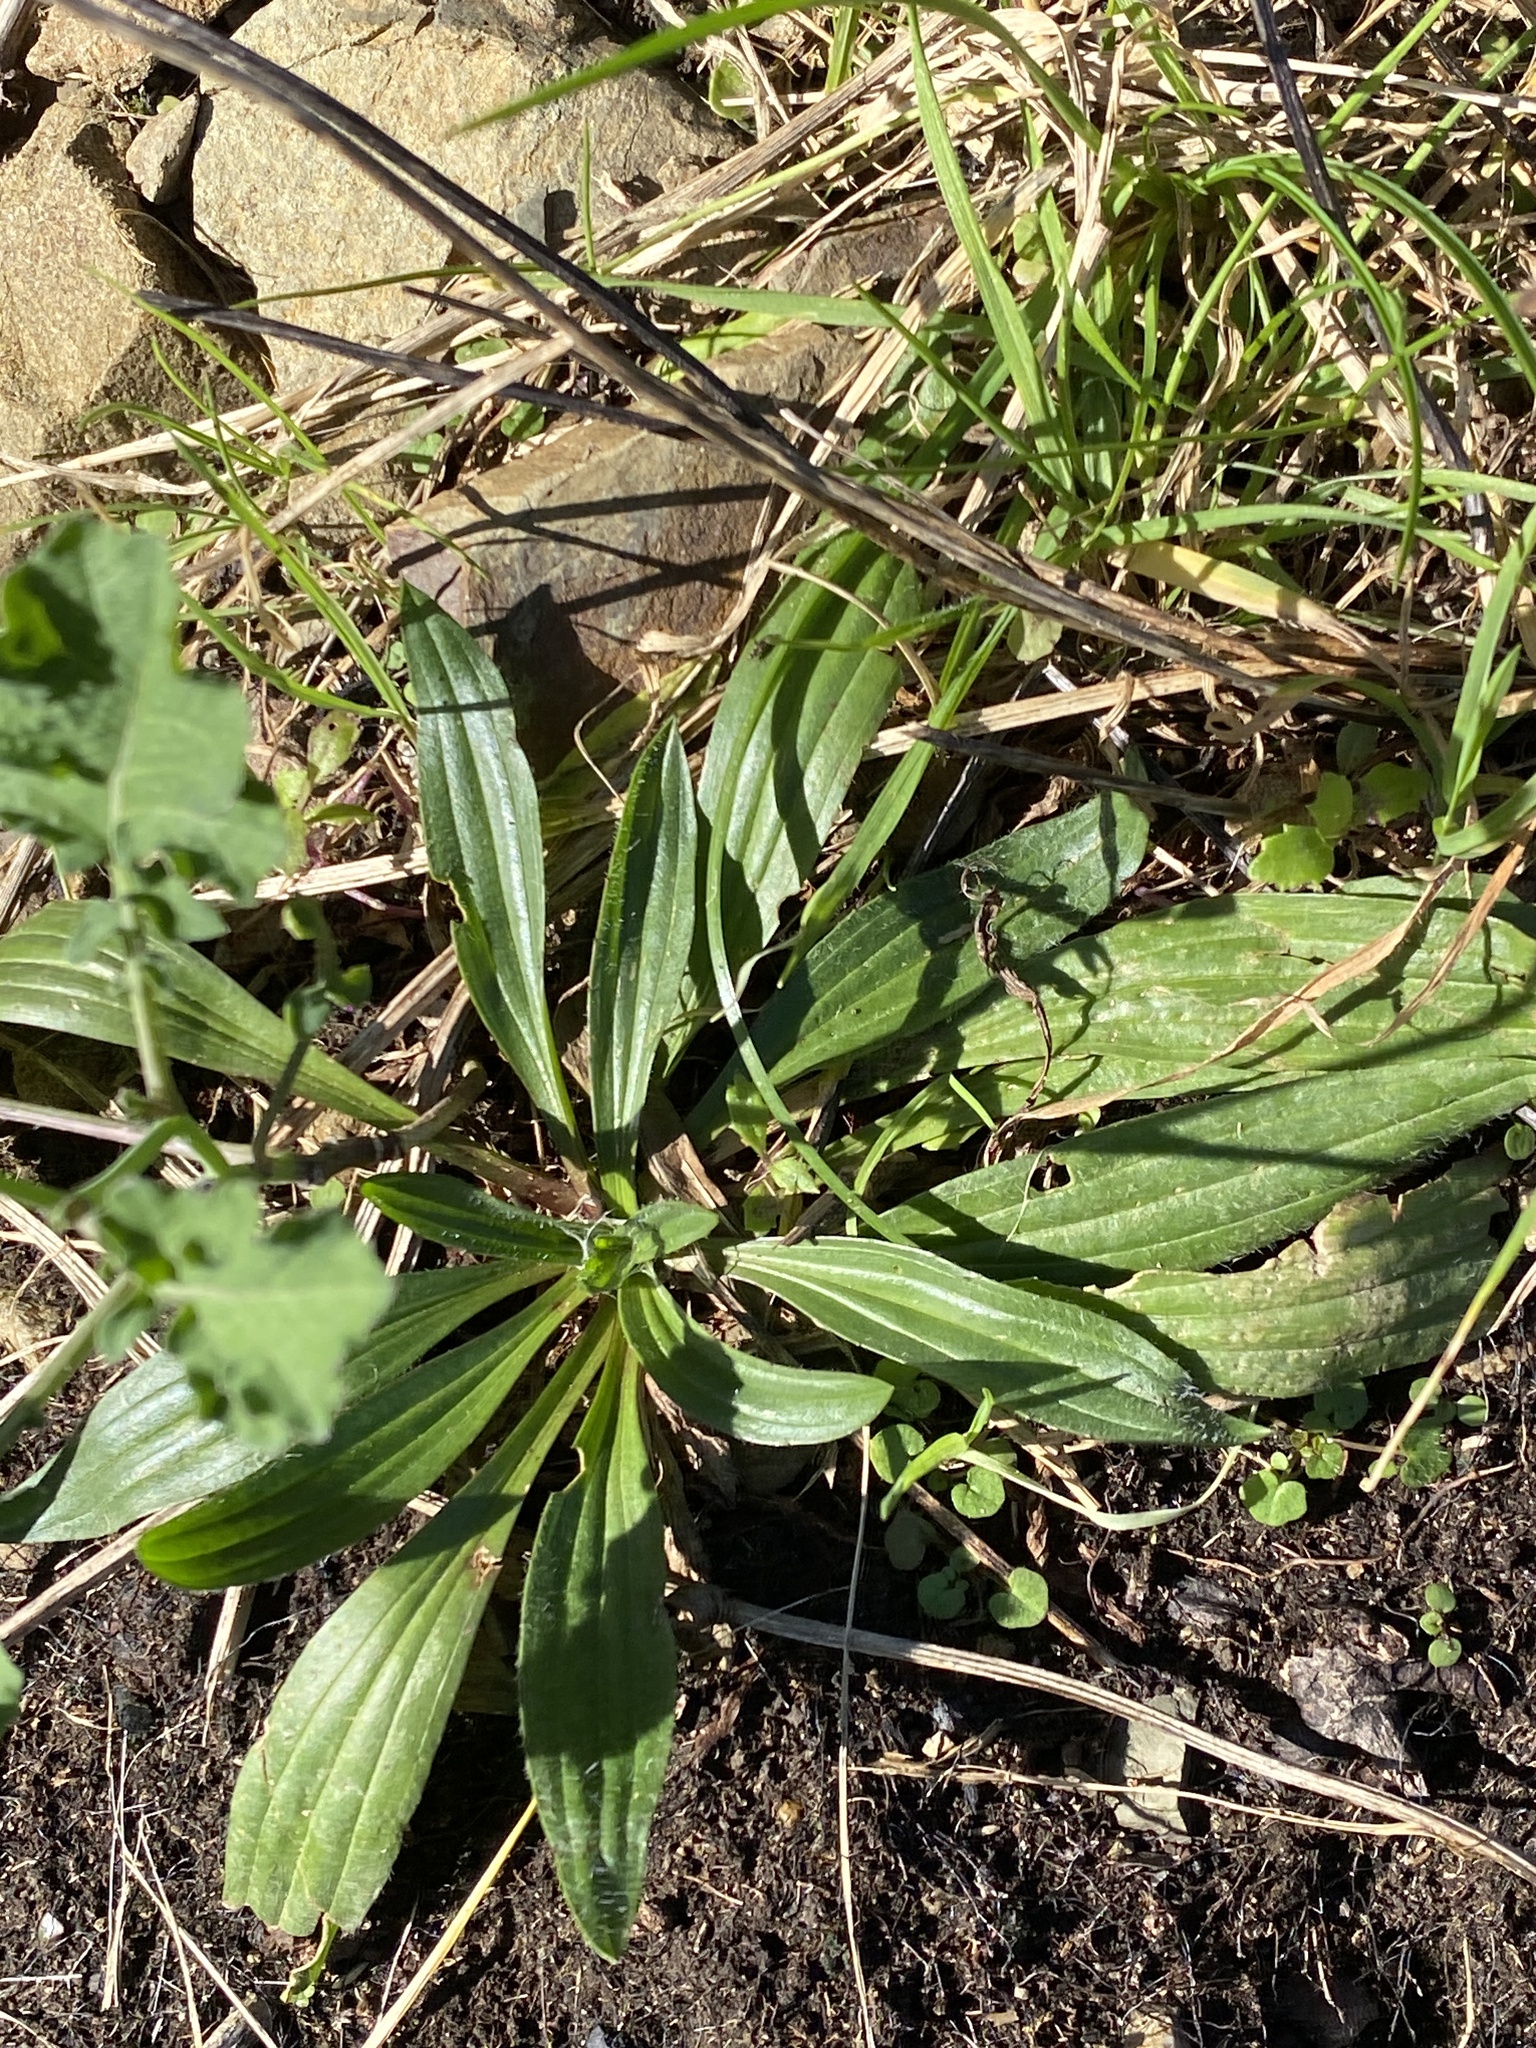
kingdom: Plantae
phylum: Tracheophyta
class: Magnoliopsida
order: Lamiales
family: Plantaginaceae
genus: Plantago
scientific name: Plantago lanceolata
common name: Ribwort plantain
